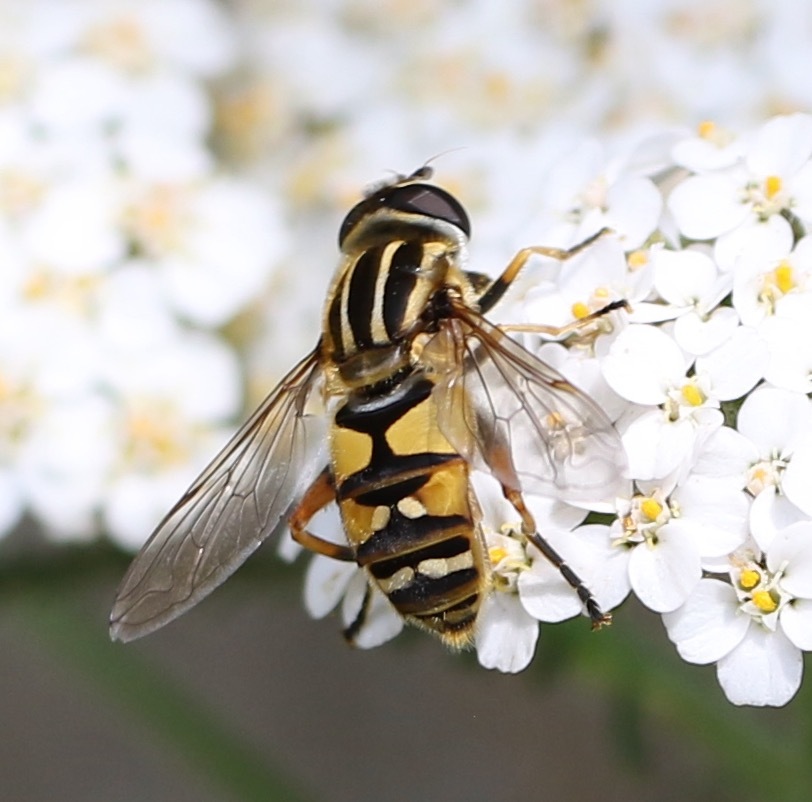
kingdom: Animalia
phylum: Arthropoda
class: Insecta
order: Diptera
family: Syrphidae
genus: Helophilus
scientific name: Helophilus pendulus
